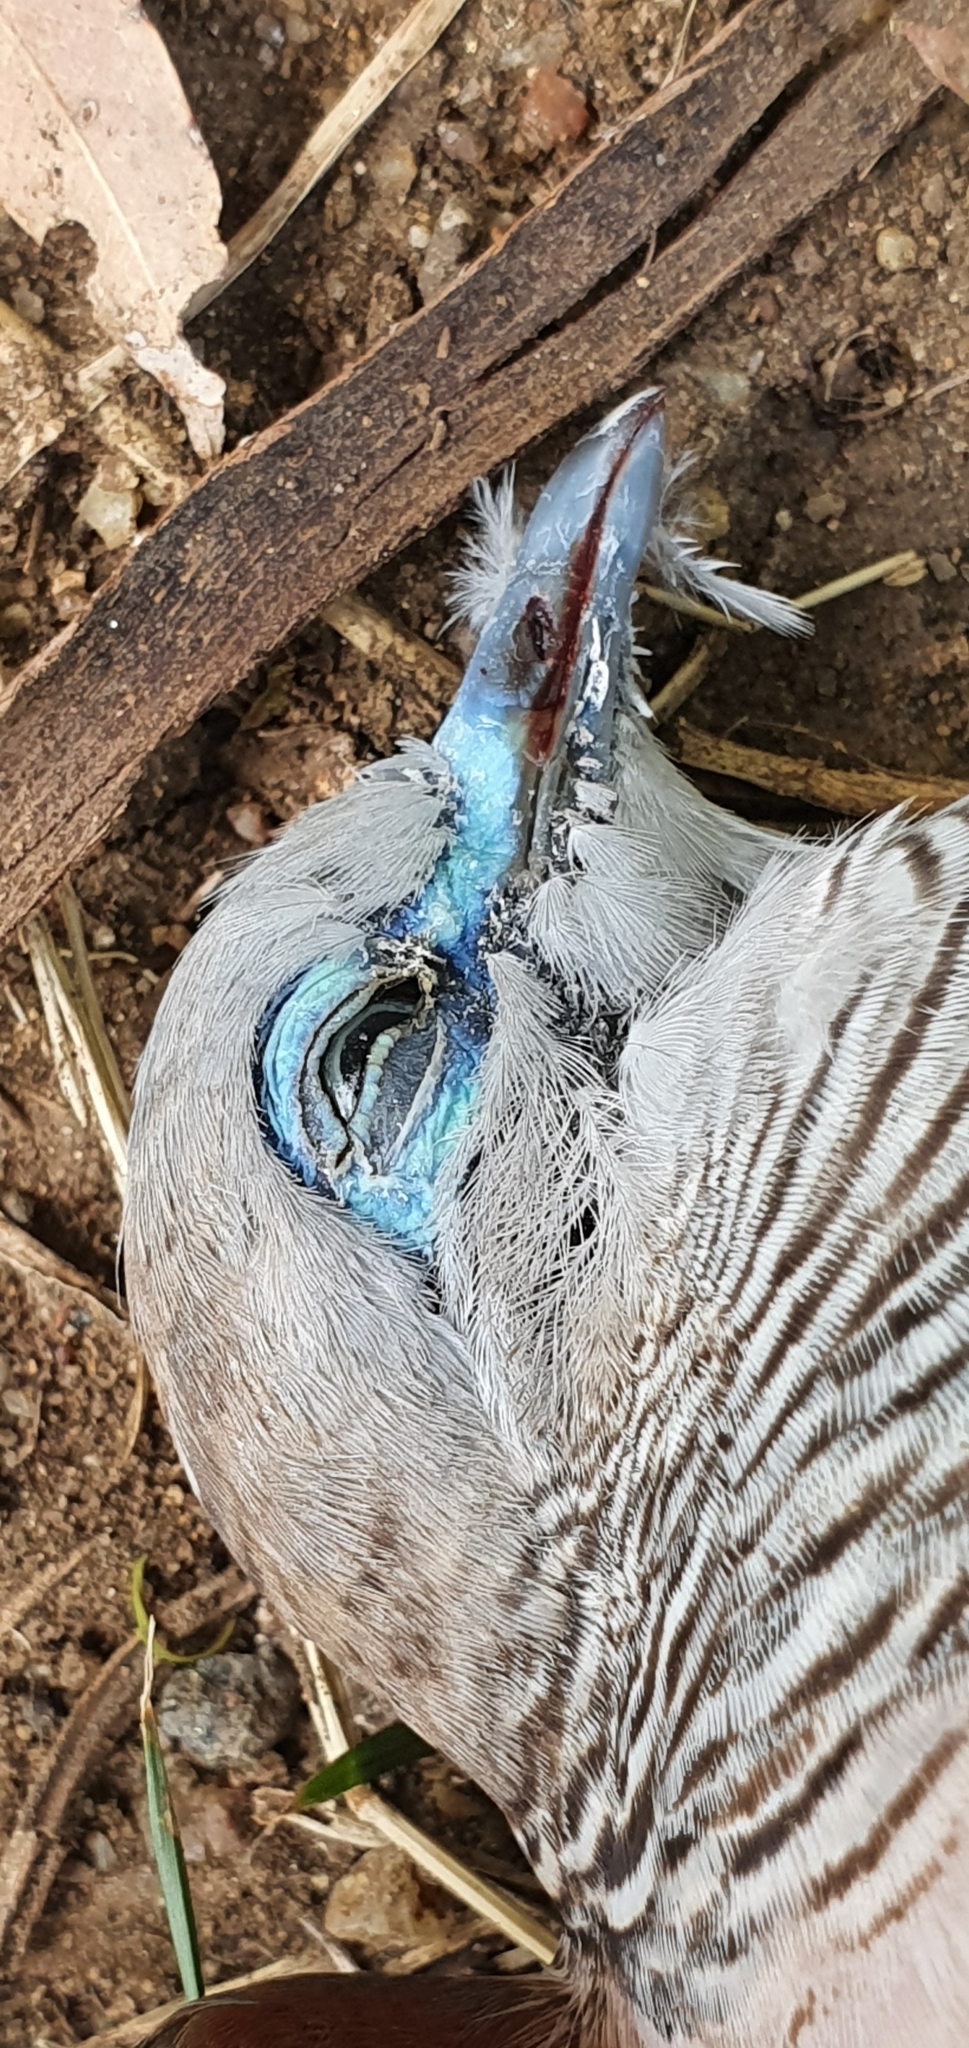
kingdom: Animalia
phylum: Chordata
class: Aves
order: Columbiformes
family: Columbidae
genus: Geopelia
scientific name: Geopelia placida
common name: Peaceful dove
